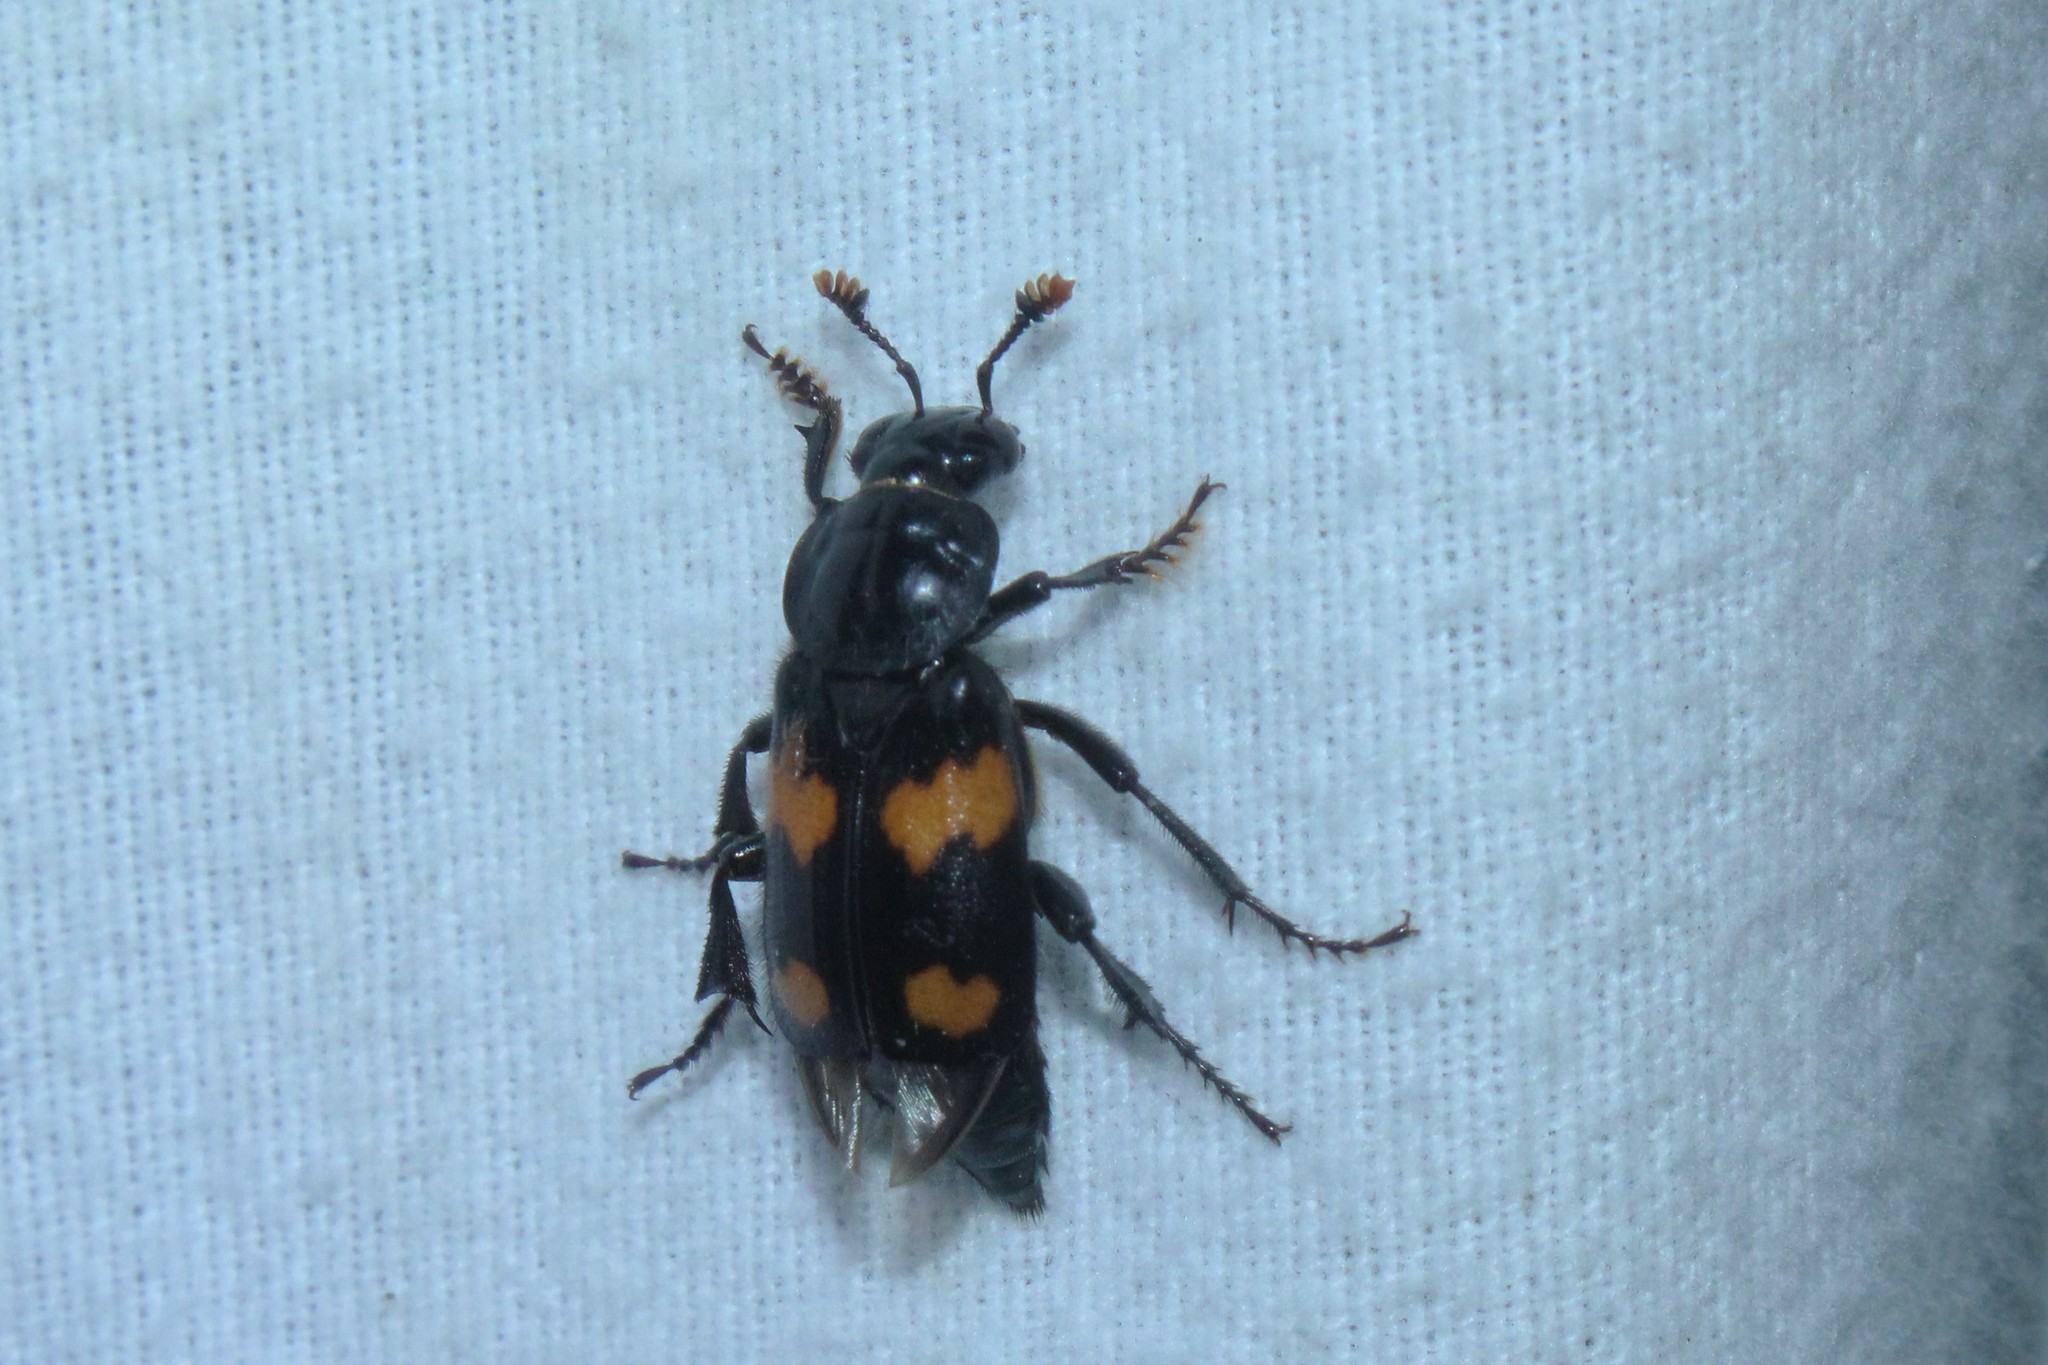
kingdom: Animalia
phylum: Arthropoda
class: Insecta
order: Coleoptera
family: Staphylinidae
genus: Nicrophorus
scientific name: Nicrophorus orbicollis
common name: Roundneck sexton beetle
